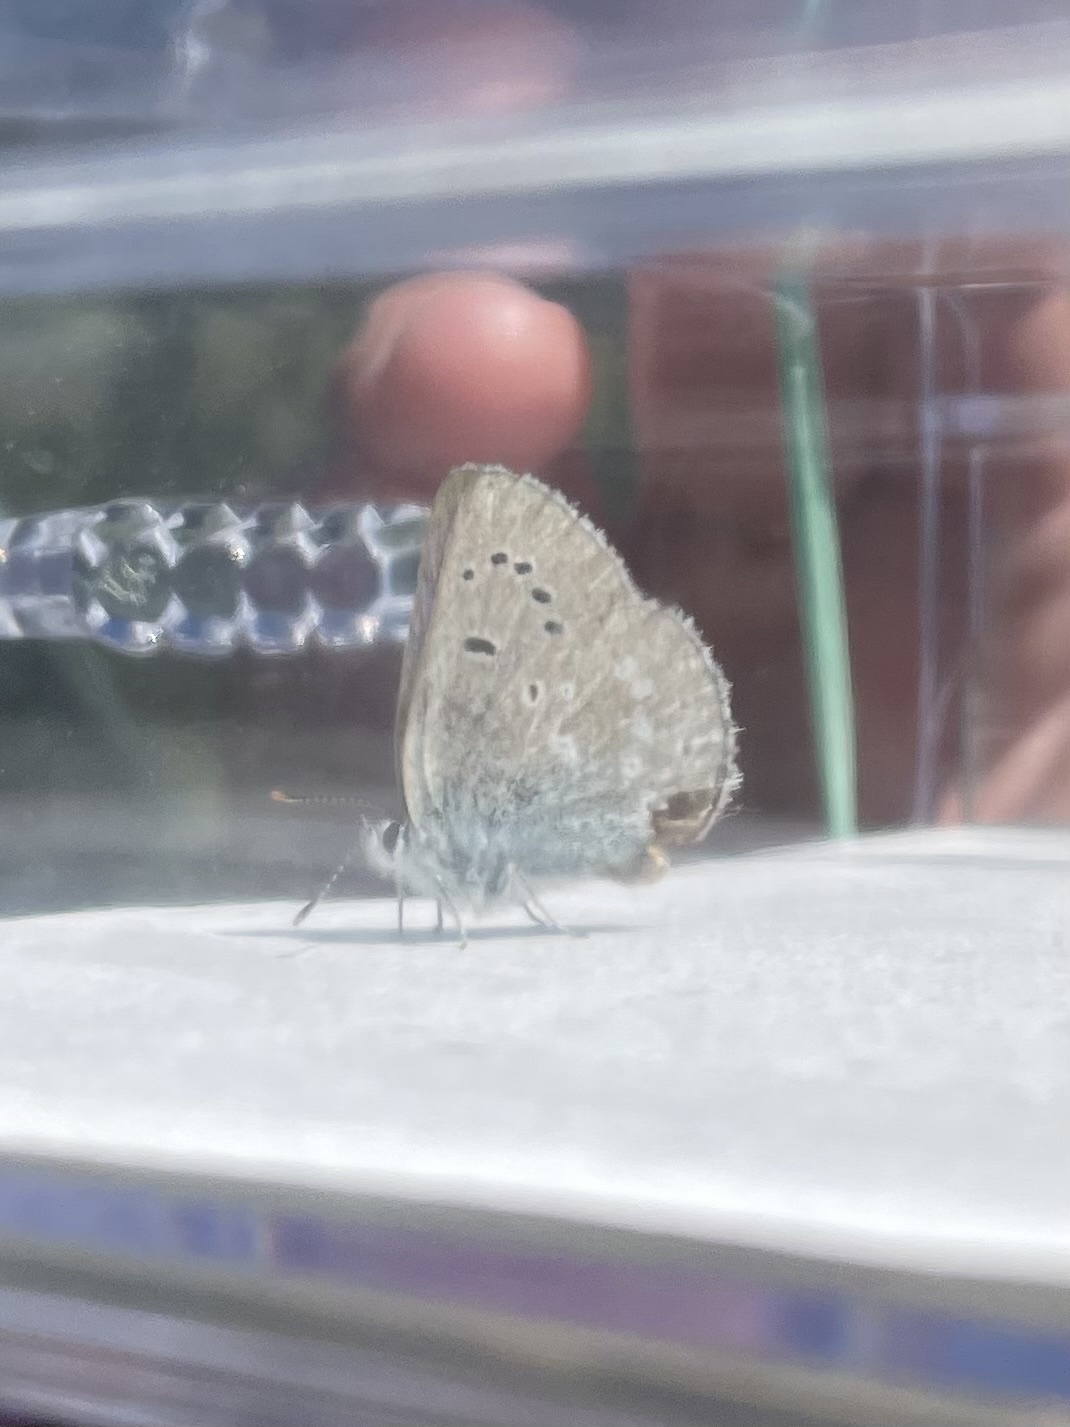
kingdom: Animalia
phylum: Arthropoda
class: Insecta
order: Lepidoptera
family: Lycaenidae
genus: Icaricia
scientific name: Icaricia icarioides
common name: Boisduval's blue
